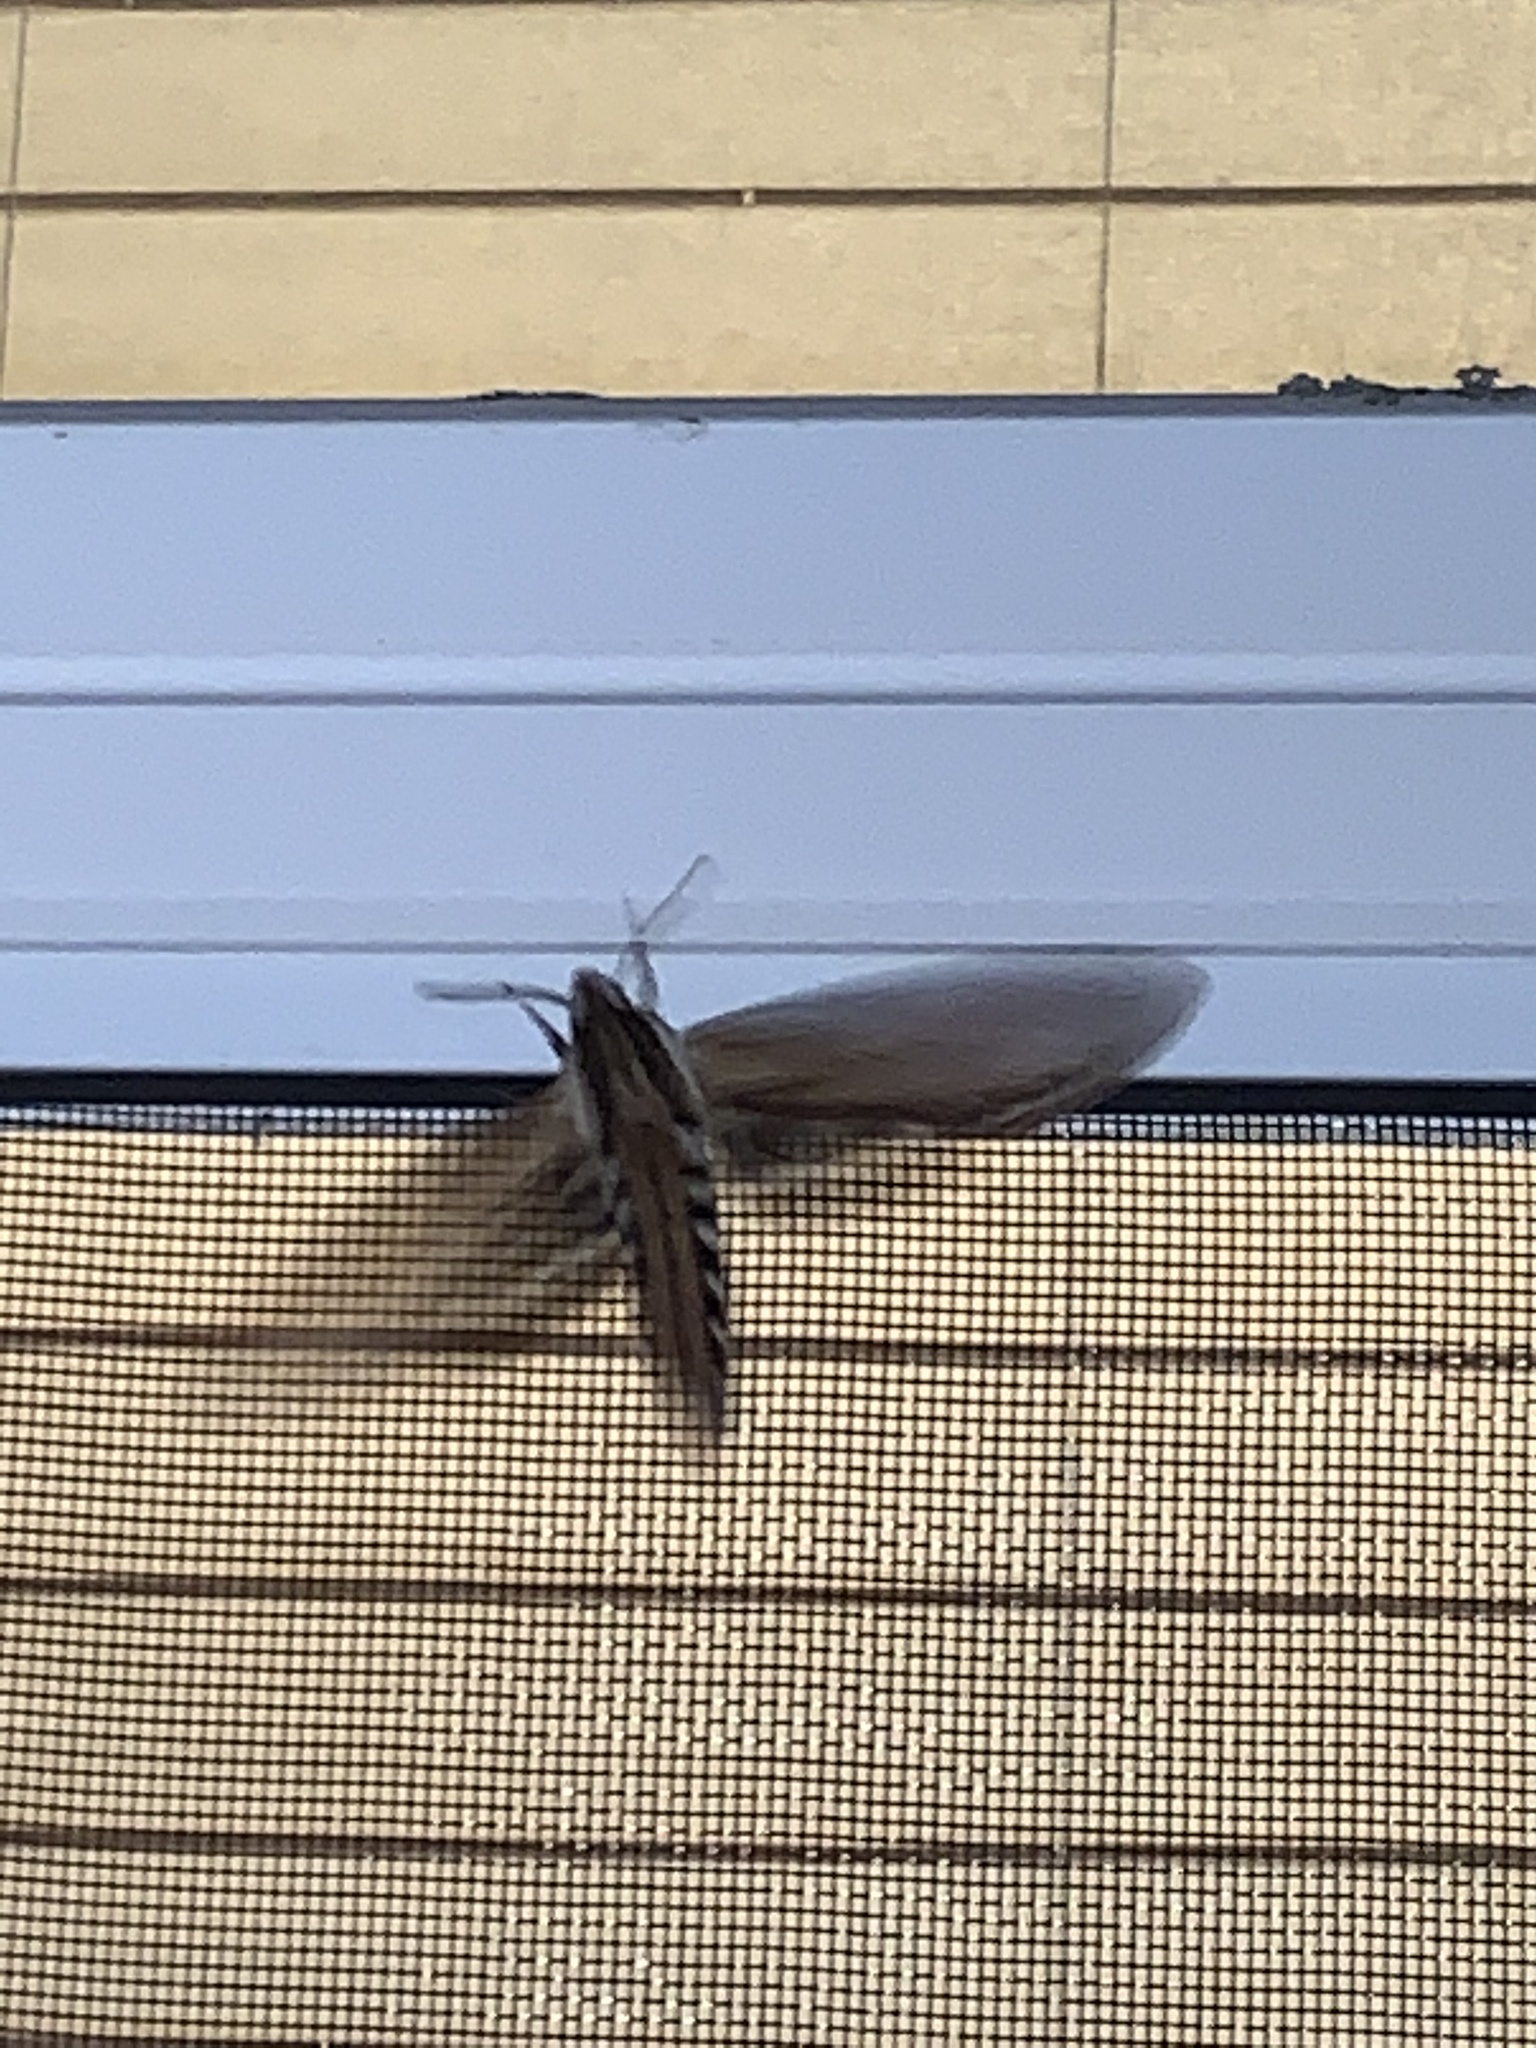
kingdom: Animalia
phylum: Arthropoda
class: Insecta
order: Lepidoptera
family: Sphingidae
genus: Sphinx
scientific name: Sphinx kalmiae
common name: Laurel sphinx
